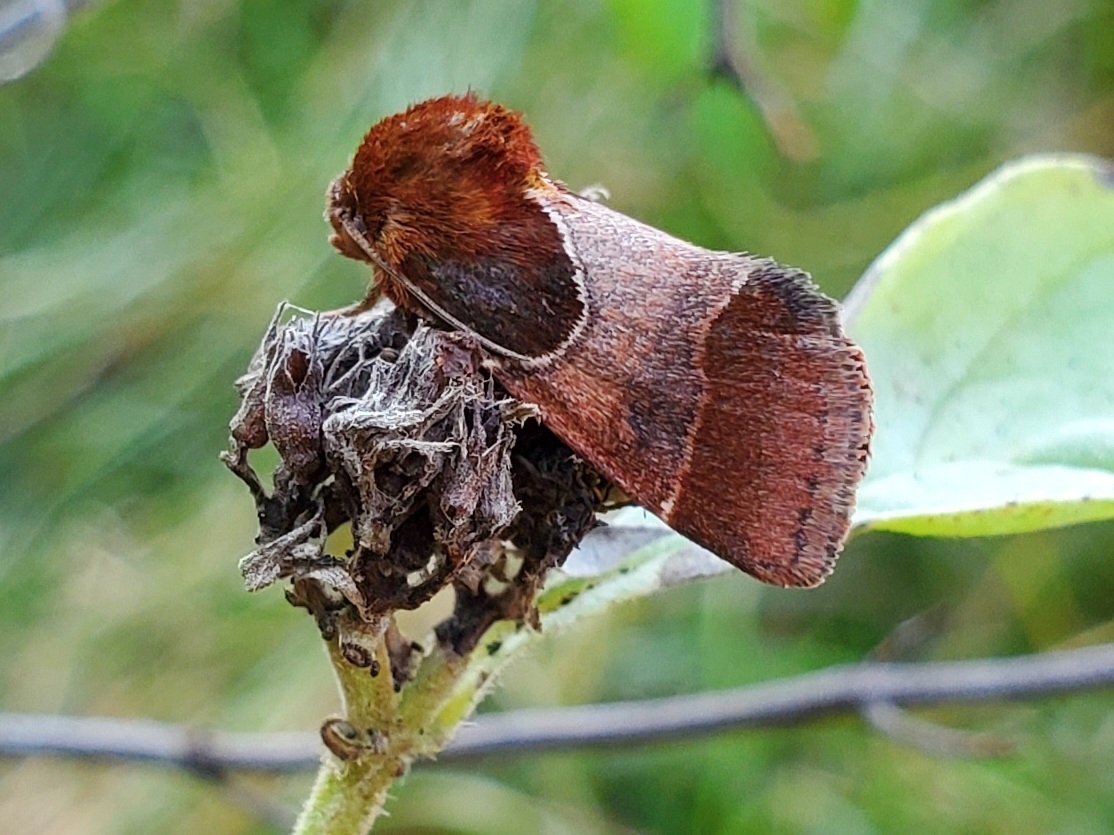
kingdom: Animalia
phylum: Arthropoda
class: Insecta
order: Lepidoptera
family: Noctuidae
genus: Schinia
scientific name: Schinia arcigera
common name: Arcigera flower moth
